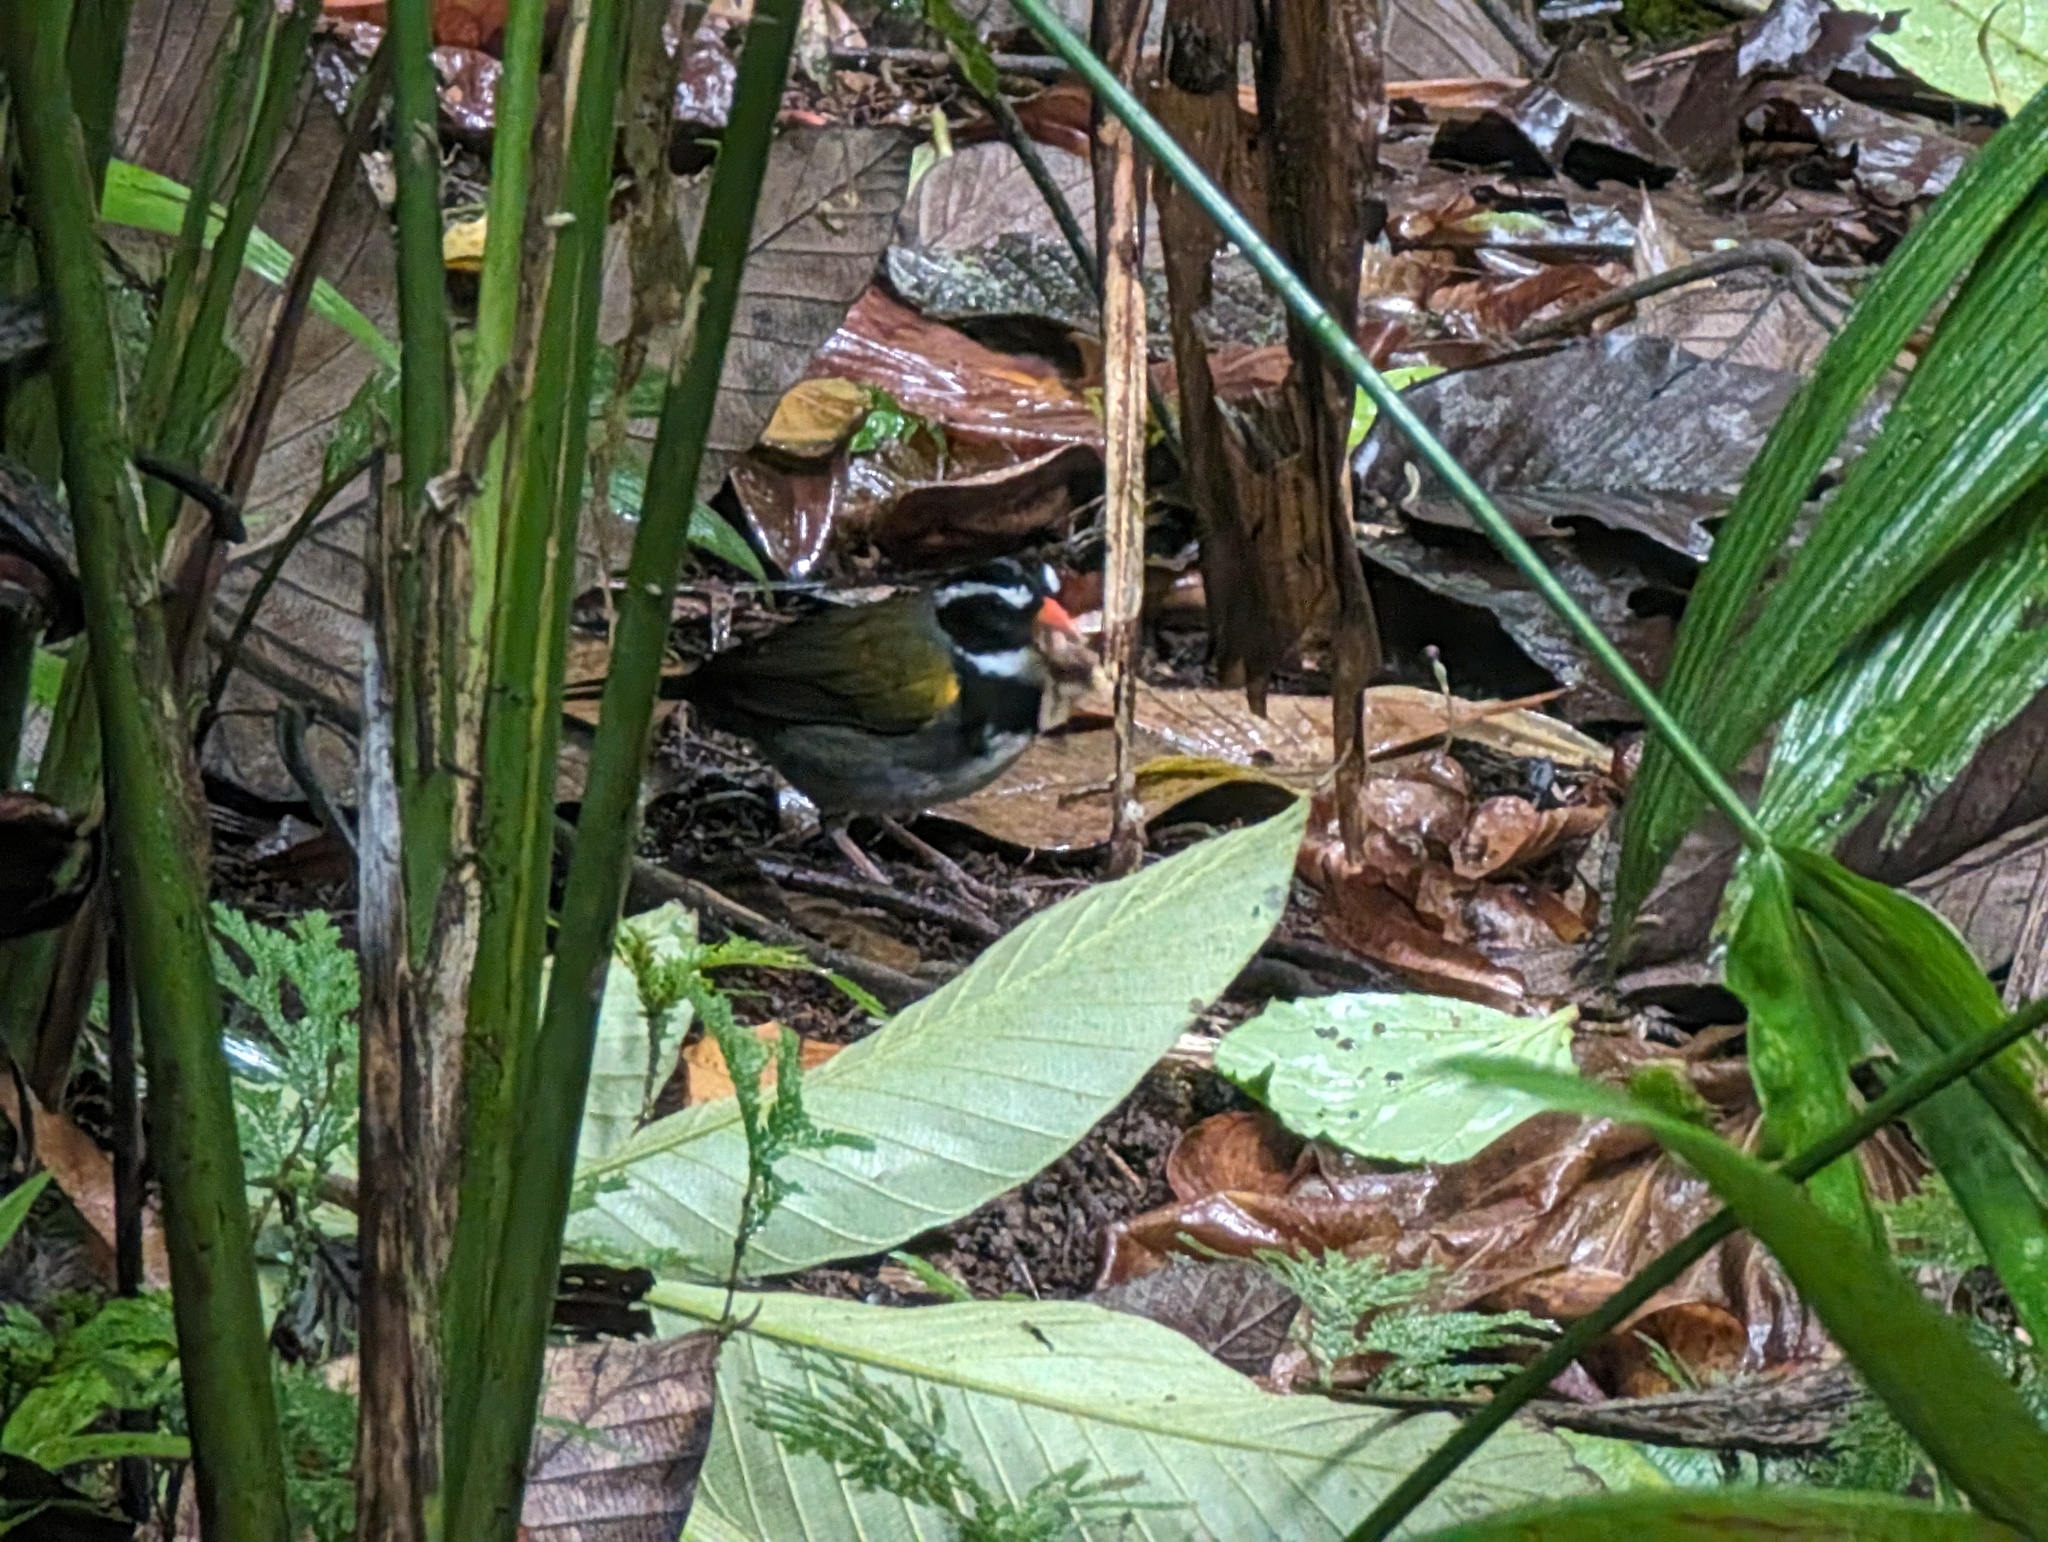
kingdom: Animalia
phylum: Chordata
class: Aves
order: Passeriformes
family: Passerellidae
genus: Arremon
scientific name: Arremon aurantiirostris
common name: Orange-billed sparrow
